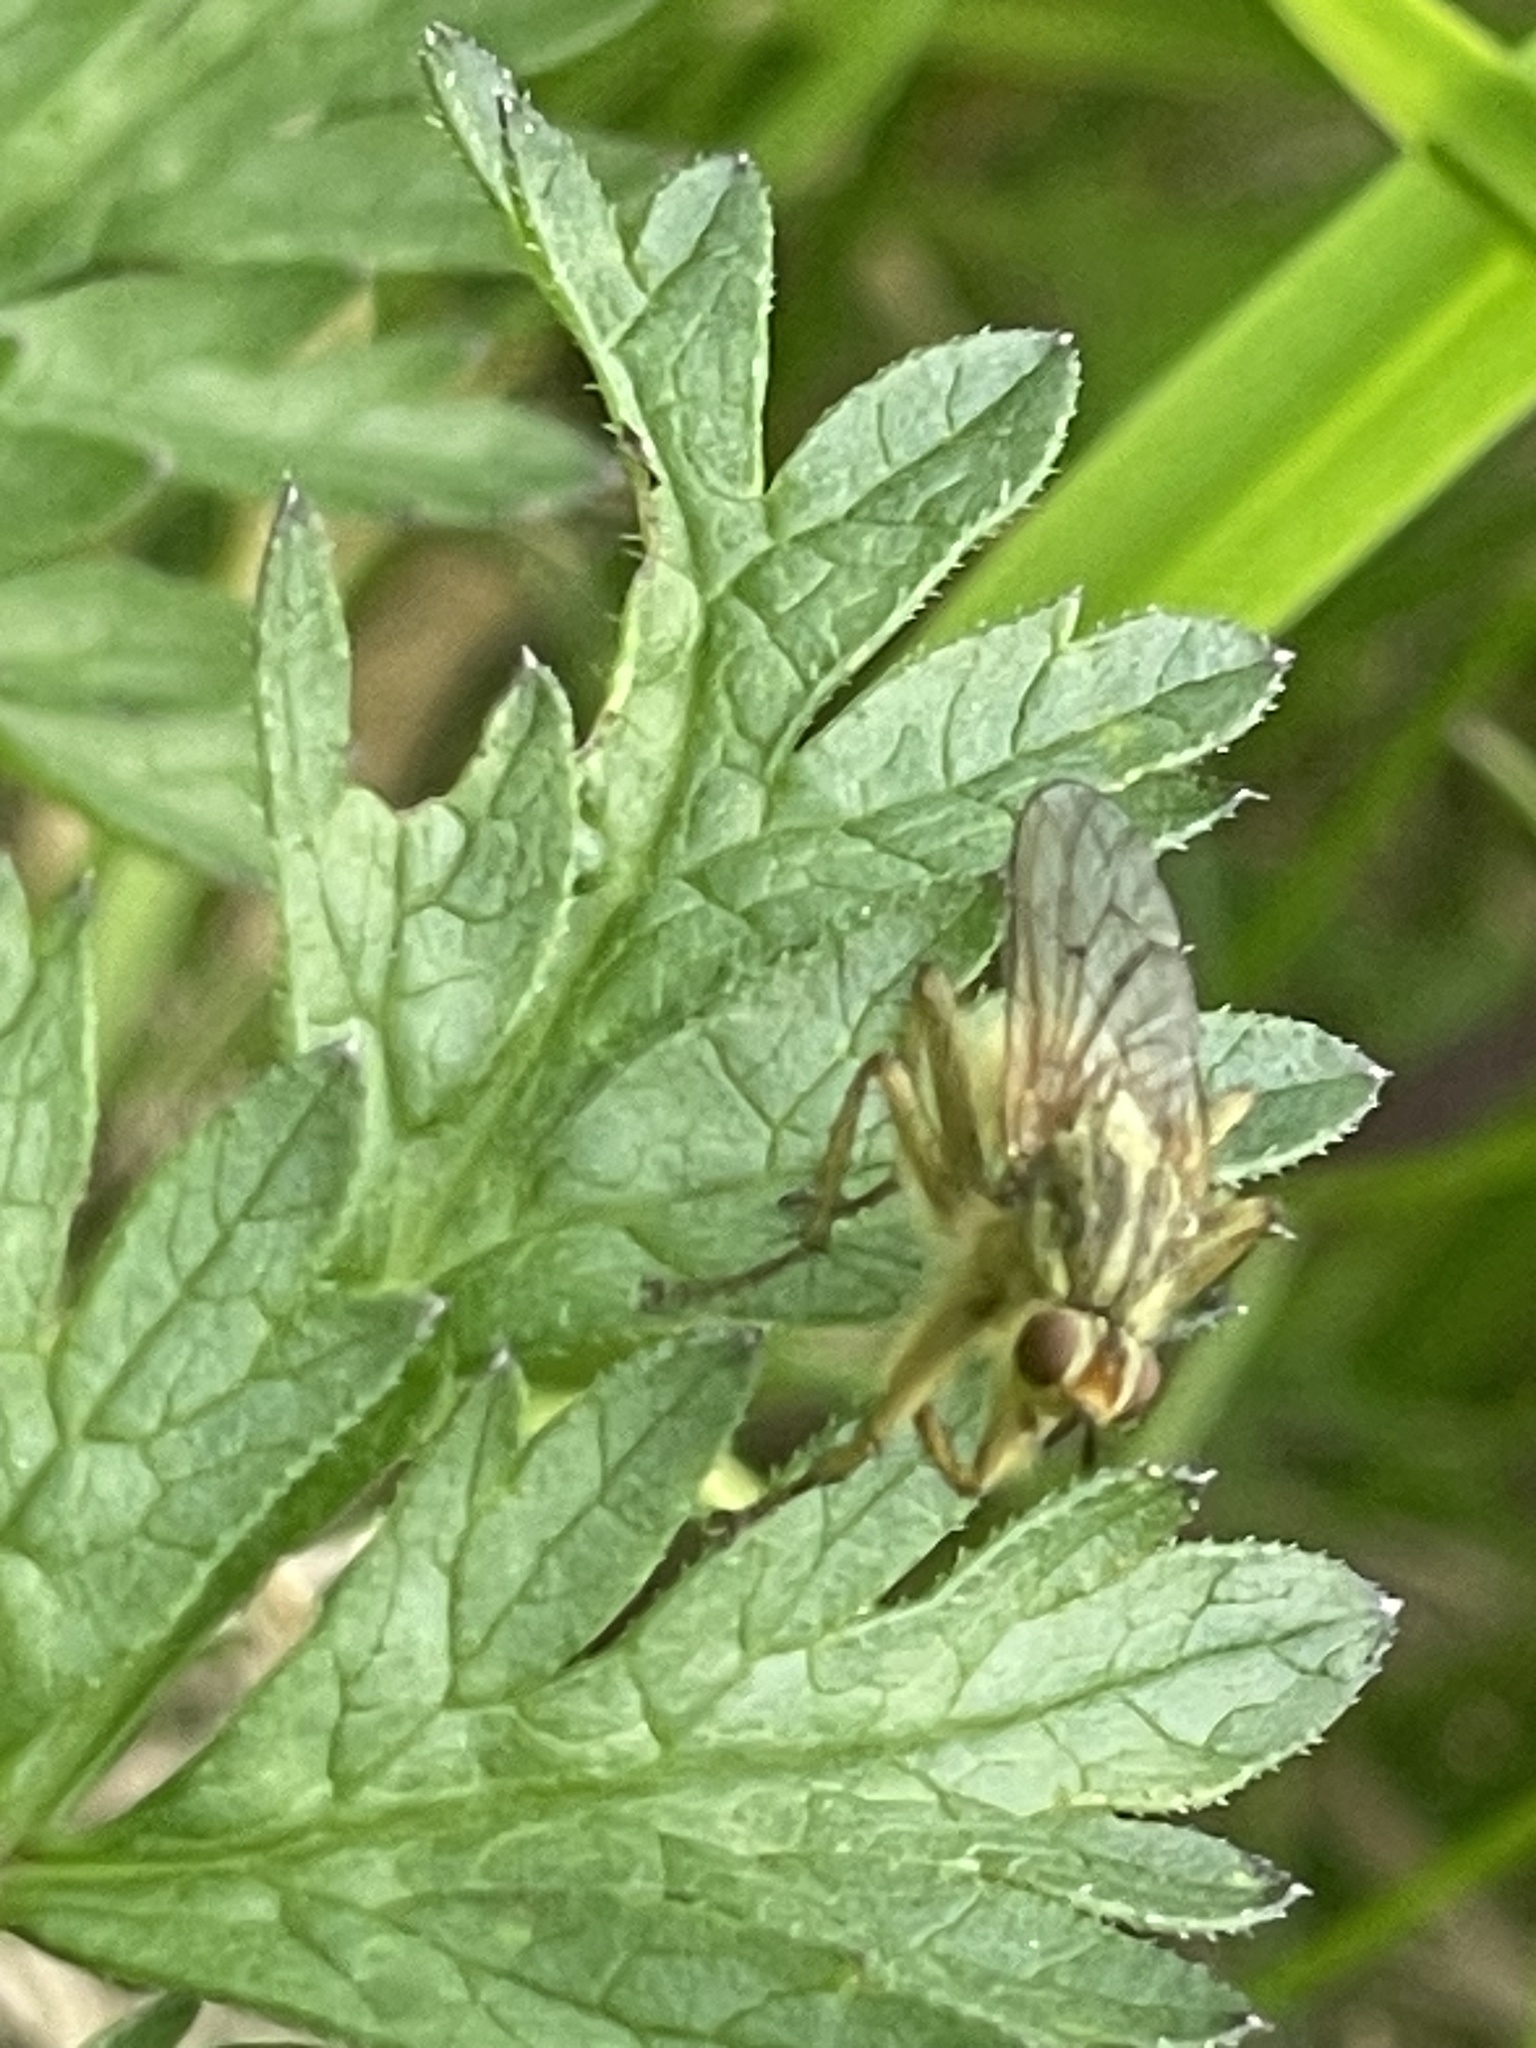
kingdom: Animalia
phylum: Arthropoda
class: Insecta
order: Diptera
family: Scathophagidae
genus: Scathophaga
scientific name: Scathophaga stercoraria
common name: Yellow dung fly
